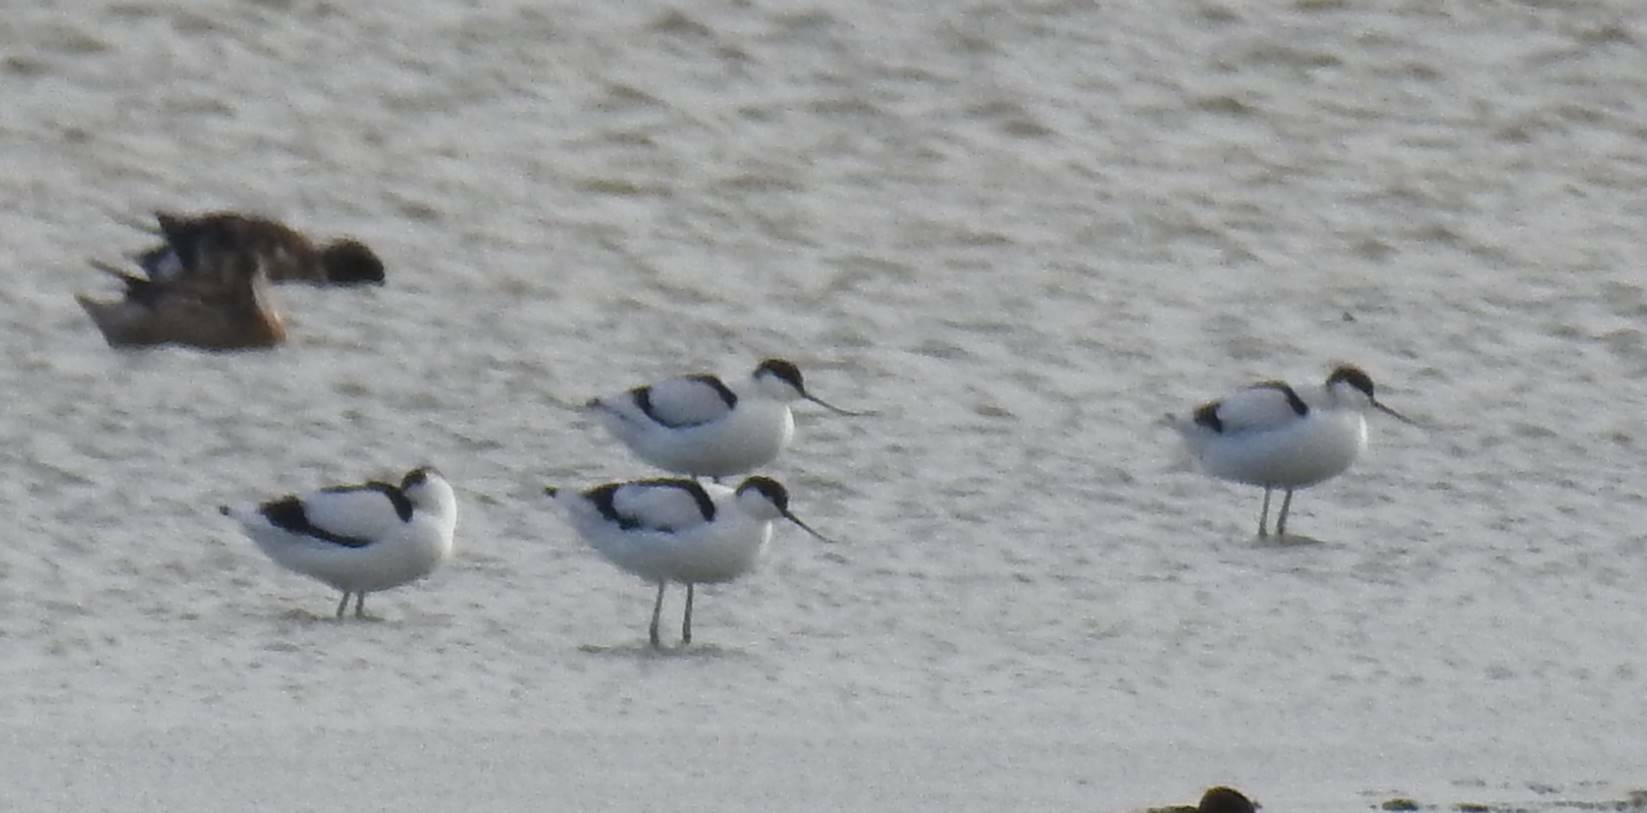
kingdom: Animalia
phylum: Chordata
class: Aves
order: Charadriiformes
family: Recurvirostridae
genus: Recurvirostra
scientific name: Recurvirostra avosetta
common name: Pied avocet
